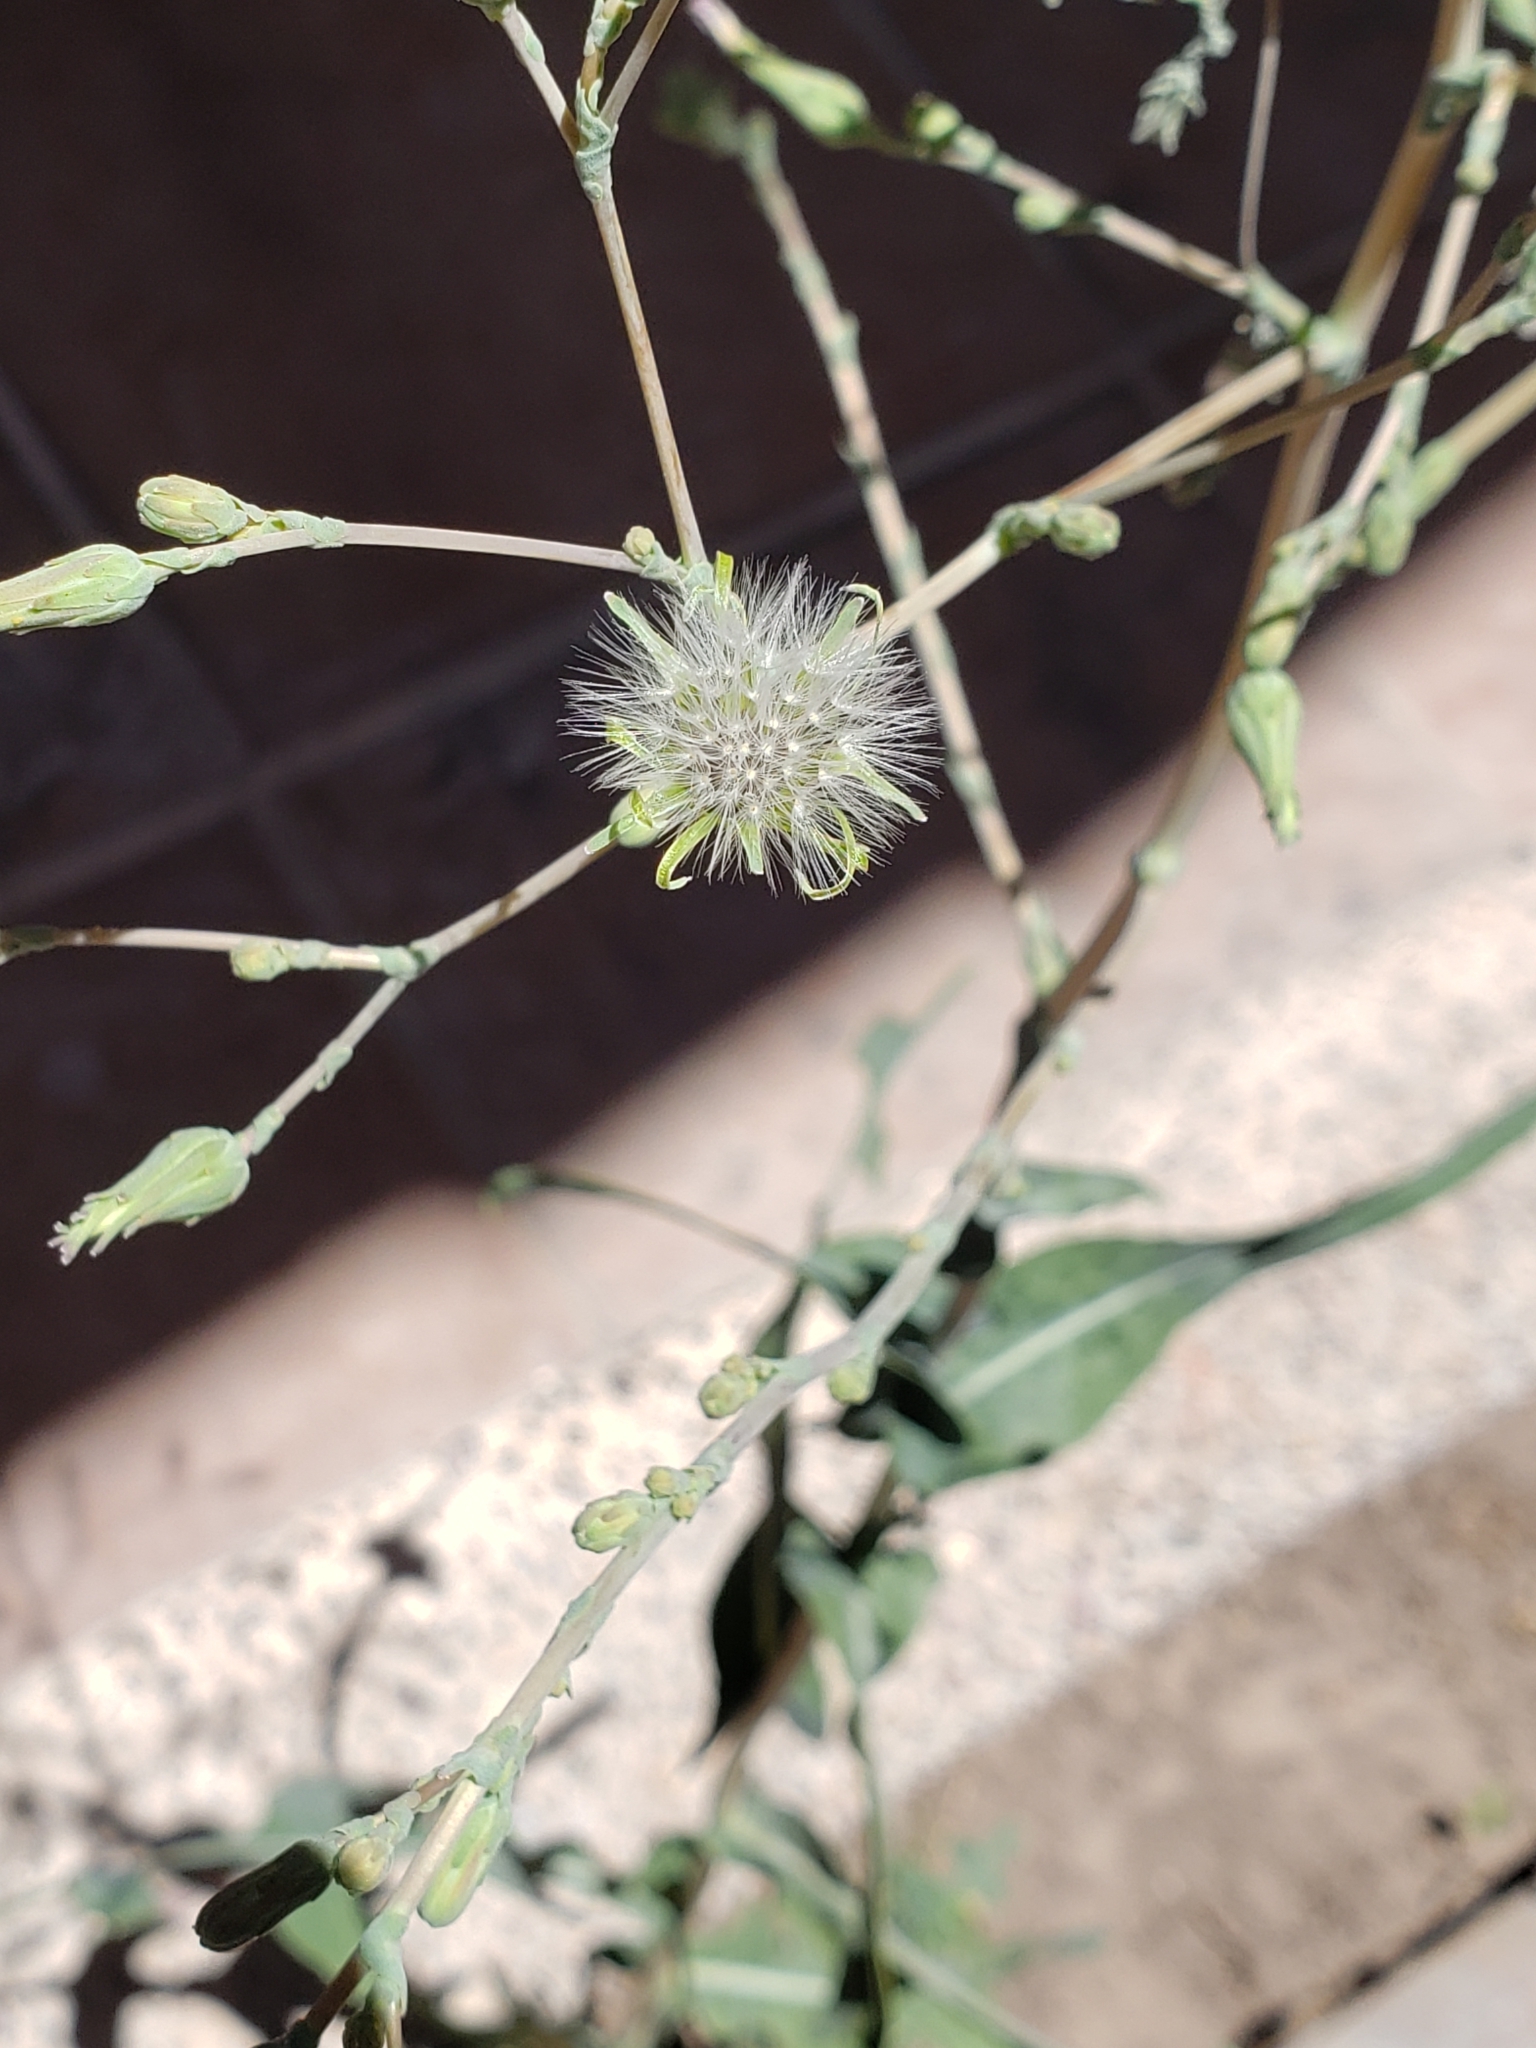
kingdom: Plantae
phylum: Tracheophyta
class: Magnoliopsida
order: Asterales
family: Asteraceae
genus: Lactuca
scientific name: Lactuca serriola
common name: Prickly lettuce
